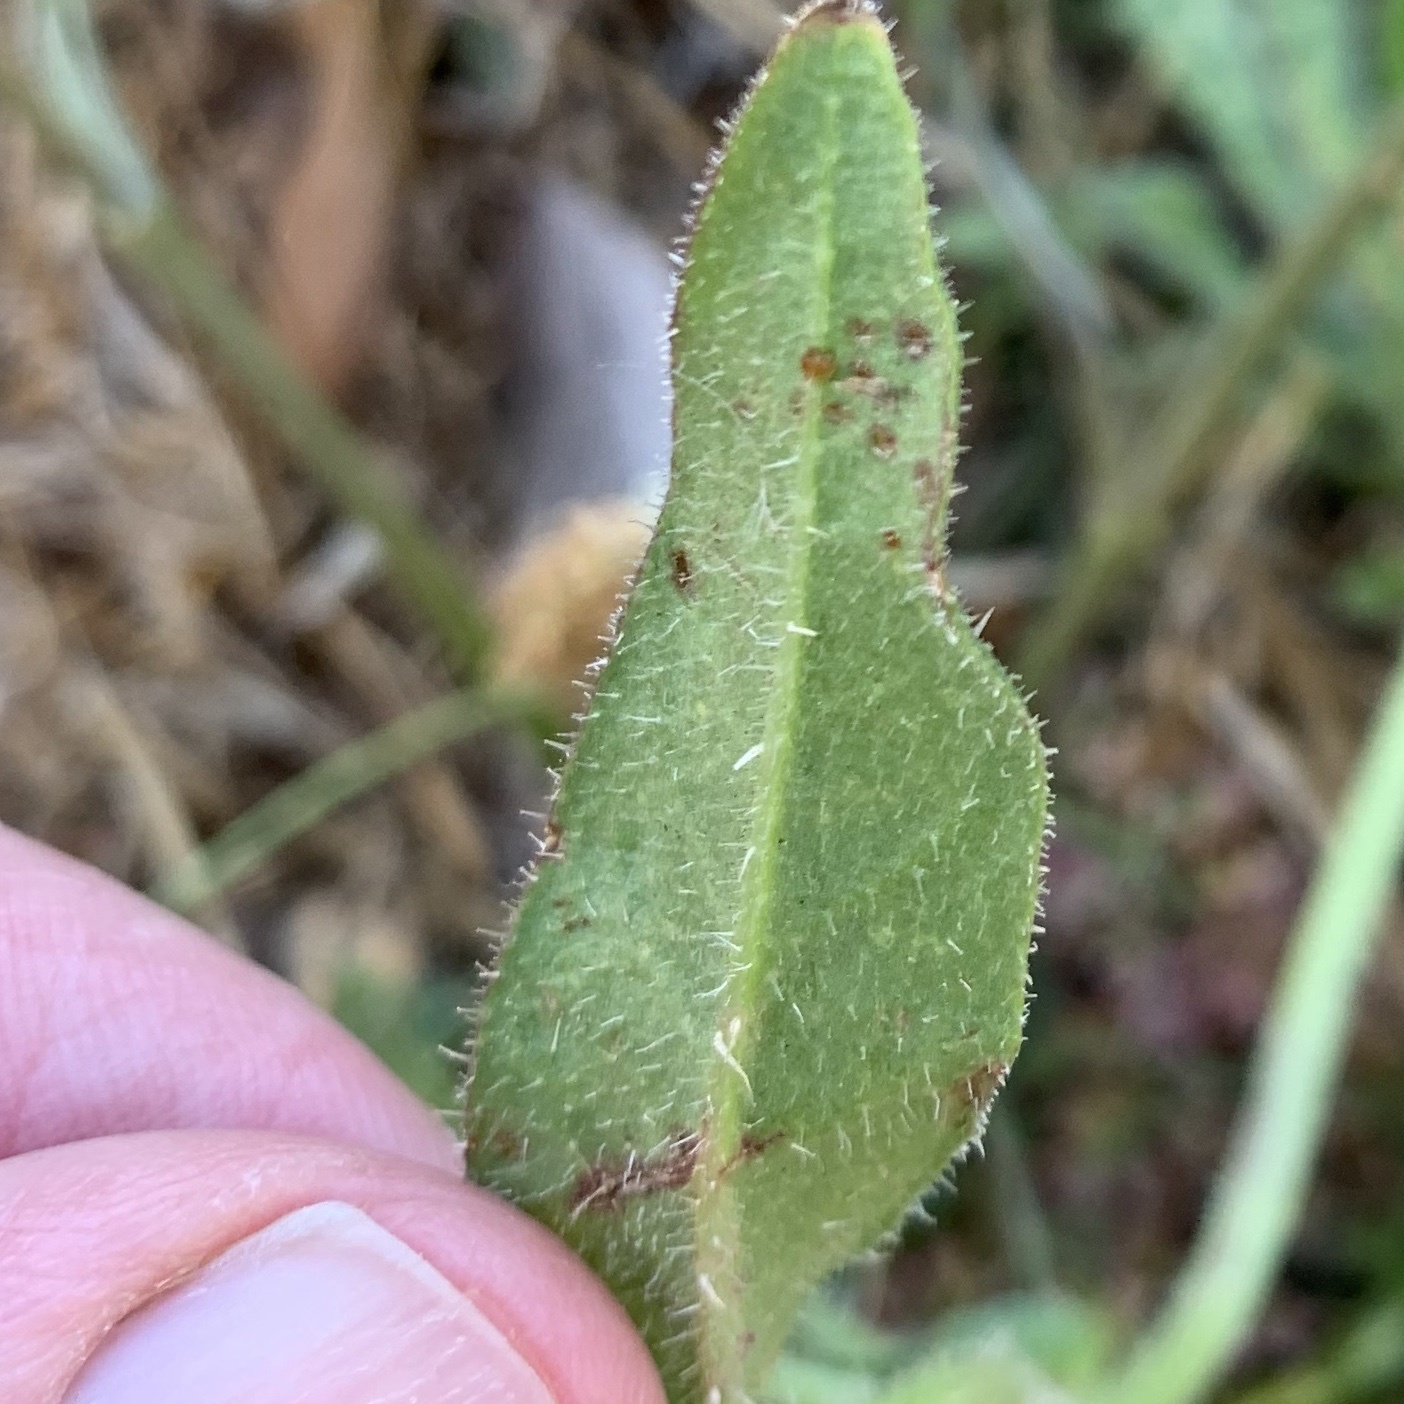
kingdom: Plantae
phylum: Tracheophyta
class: Magnoliopsida
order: Asterales
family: Asteraceae
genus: Helminthotheca
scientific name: Helminthotheca echioides
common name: Ox-tongue
